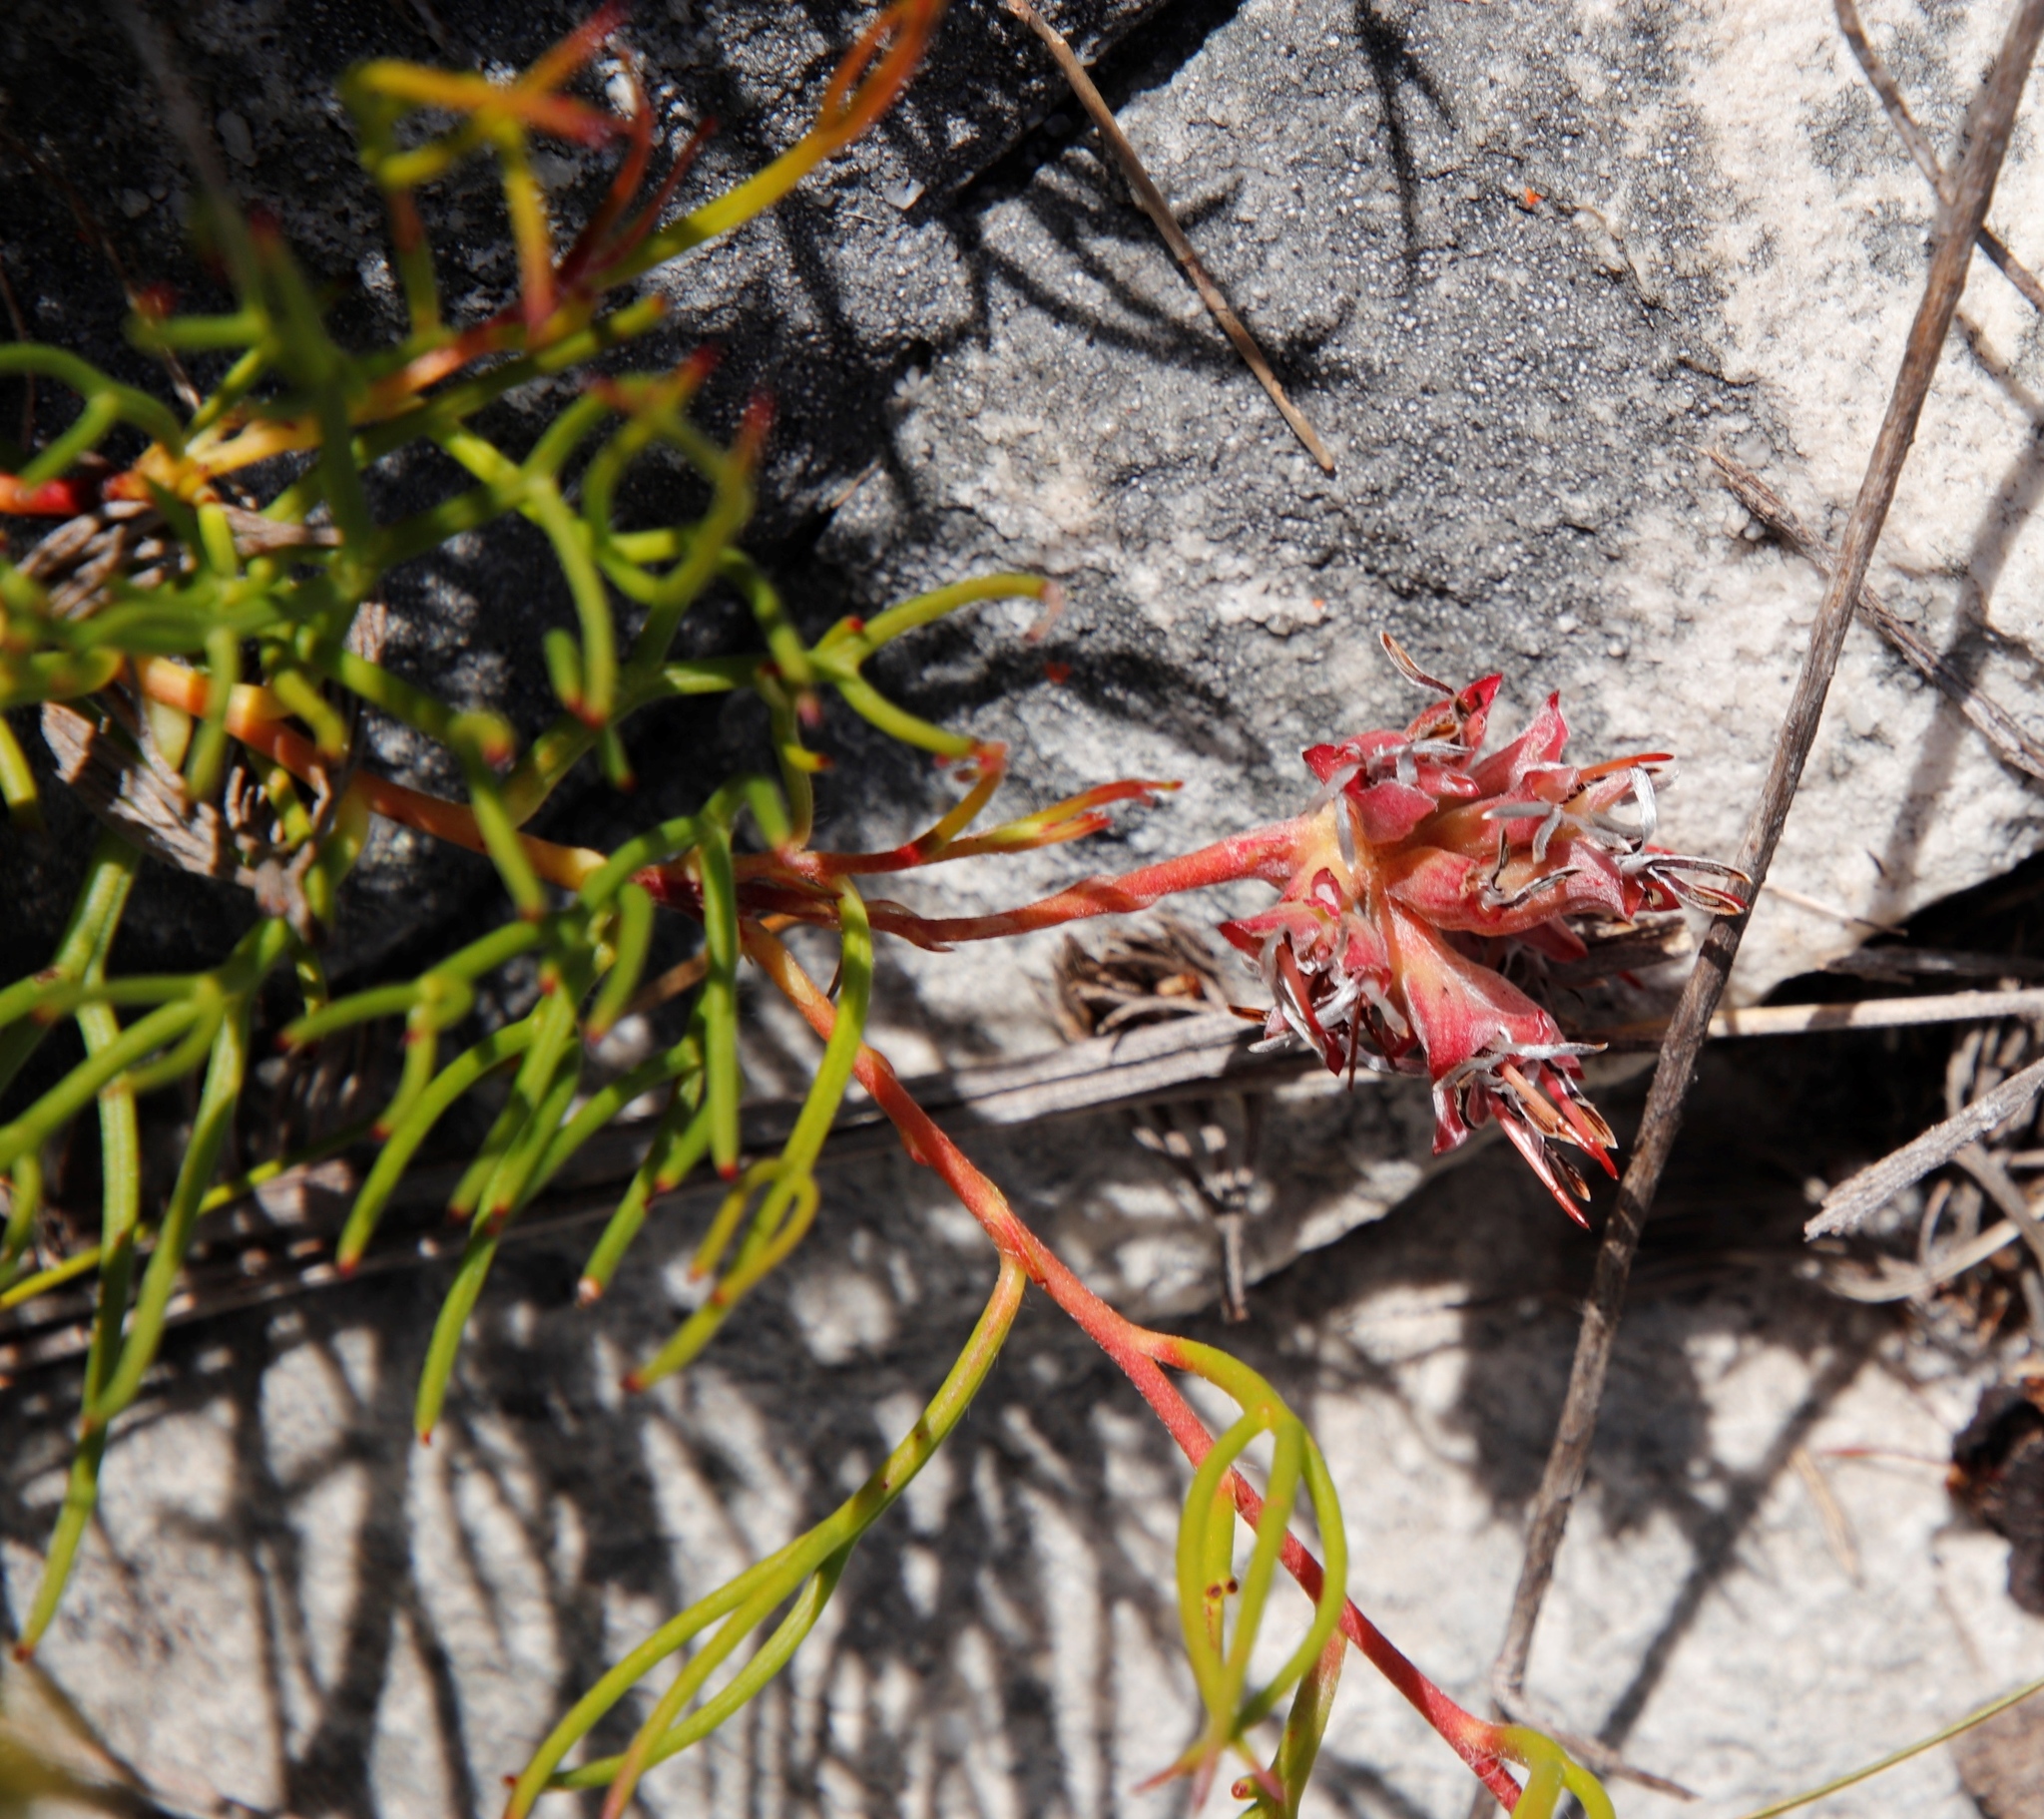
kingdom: Plantae
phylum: Tracheophyta
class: Magnoliopsida
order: Proteales
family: Proteaceae
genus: Serruria
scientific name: Serruria decumbens
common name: Peninsula spiderhead
